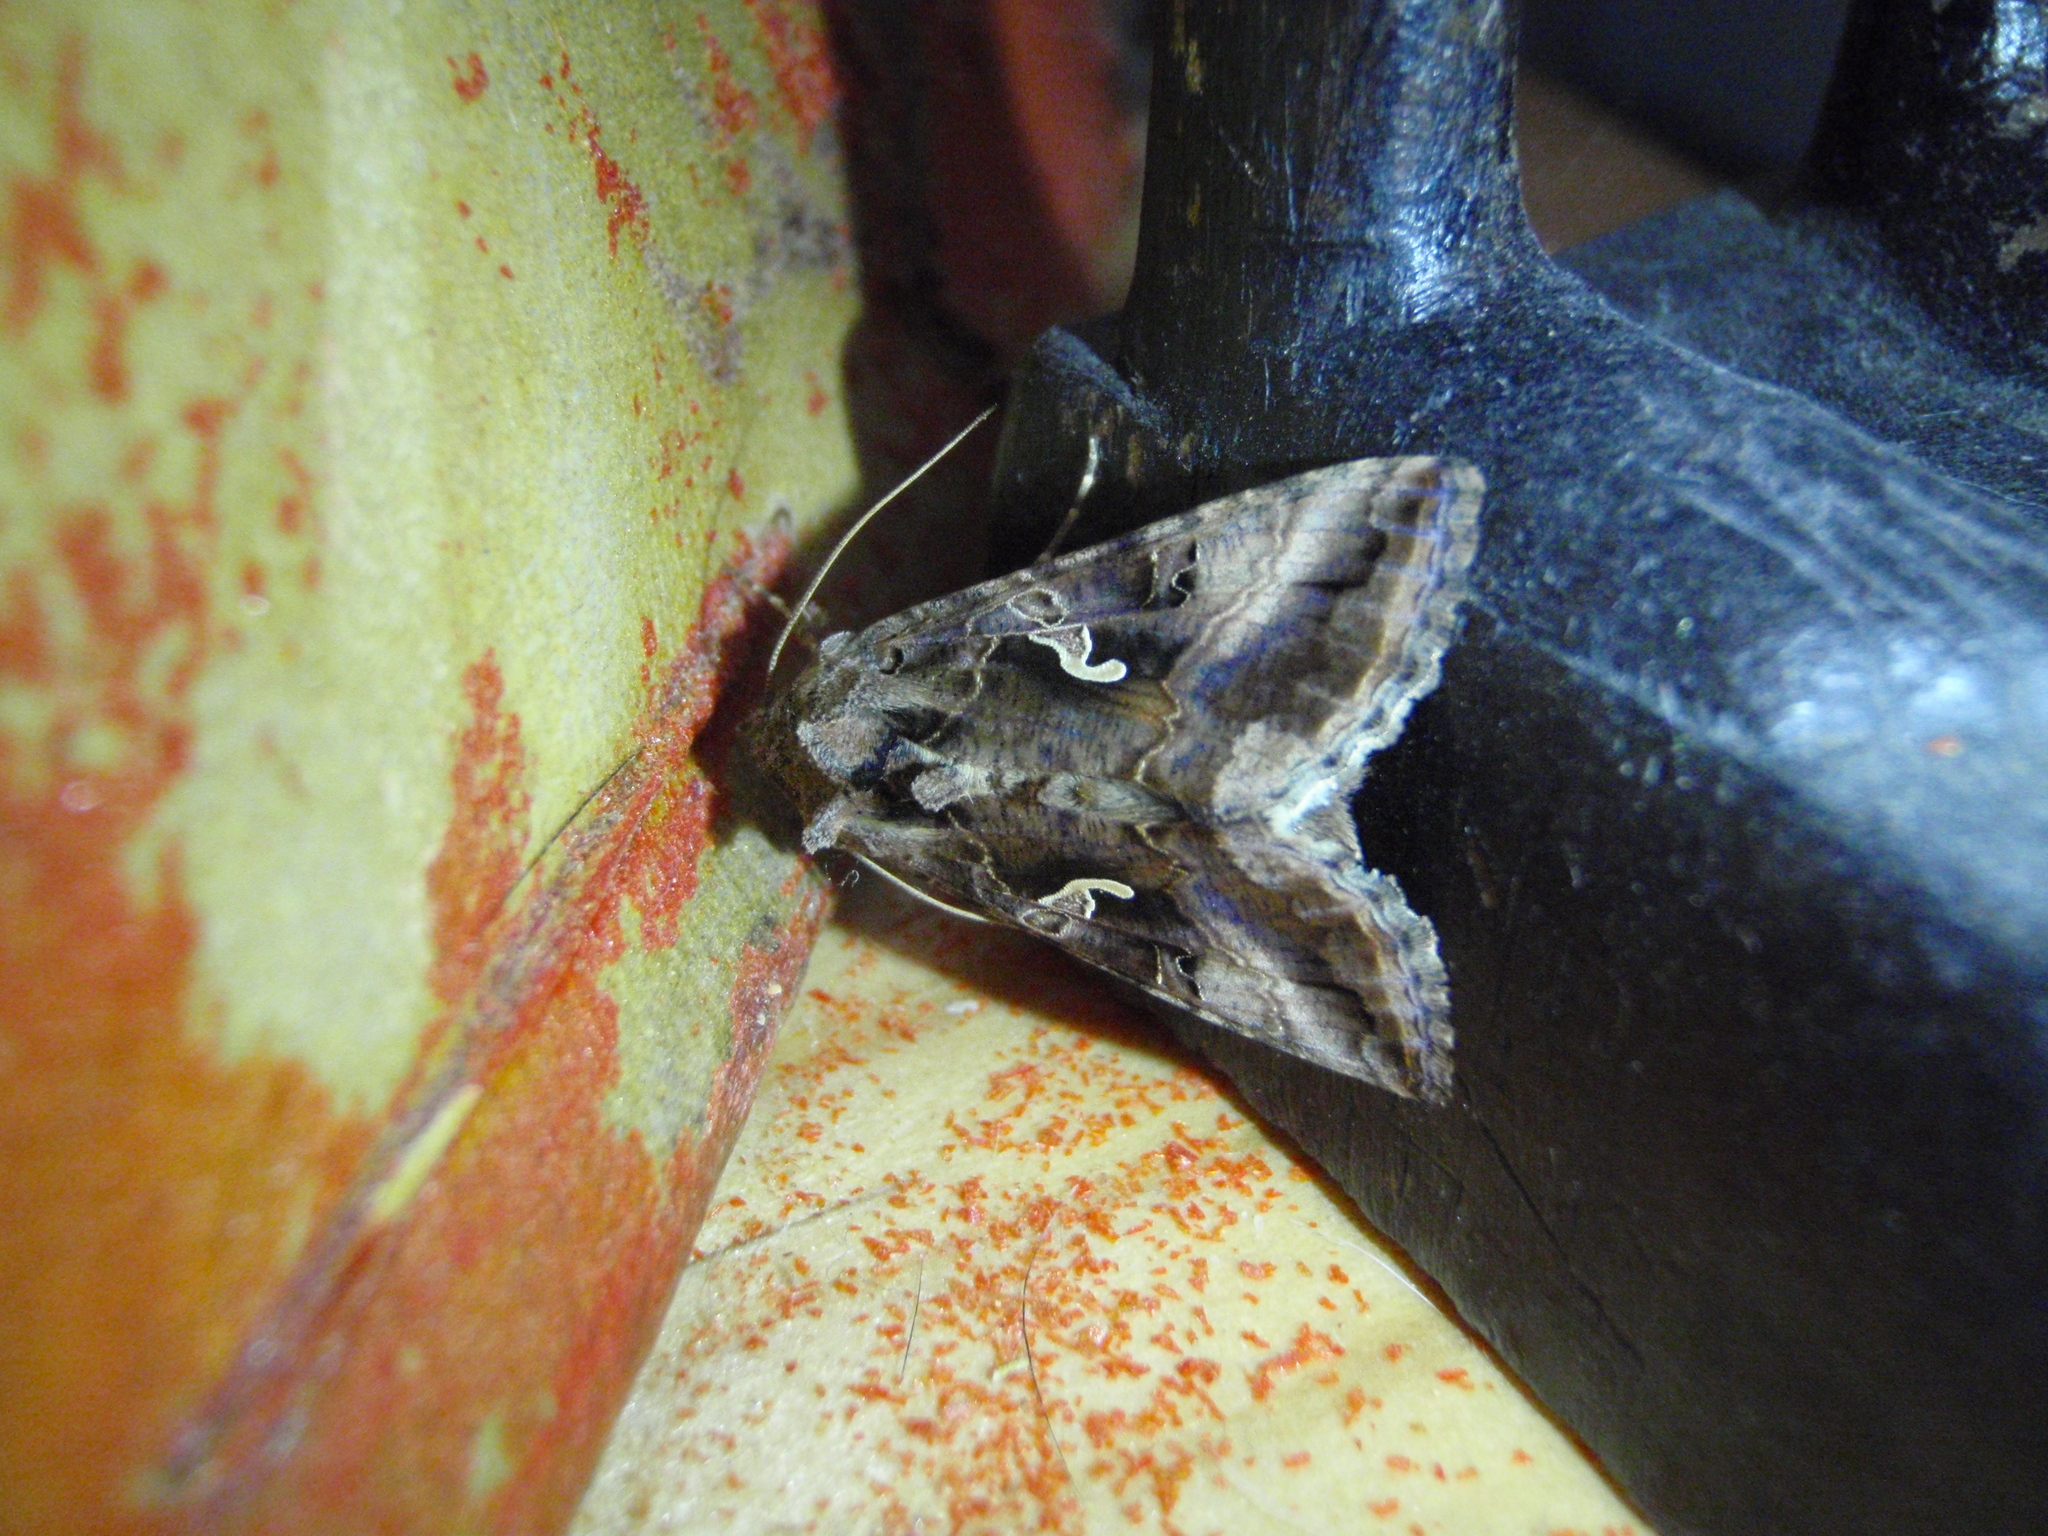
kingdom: Animalia
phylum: Arthropoda
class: Insecta
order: Lepidoptera
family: Noctuidae
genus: Autographa
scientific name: Autographa gamma
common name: Silver y
